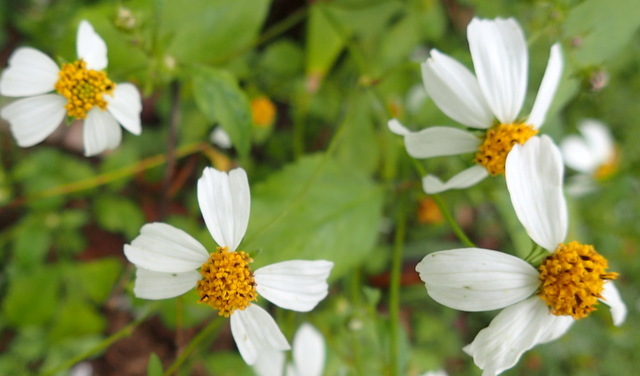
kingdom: Plantae
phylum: Tracheophyta
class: Magnoliopsida
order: Asterales
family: Asteraceae
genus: Bidens
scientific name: Bidens alba
